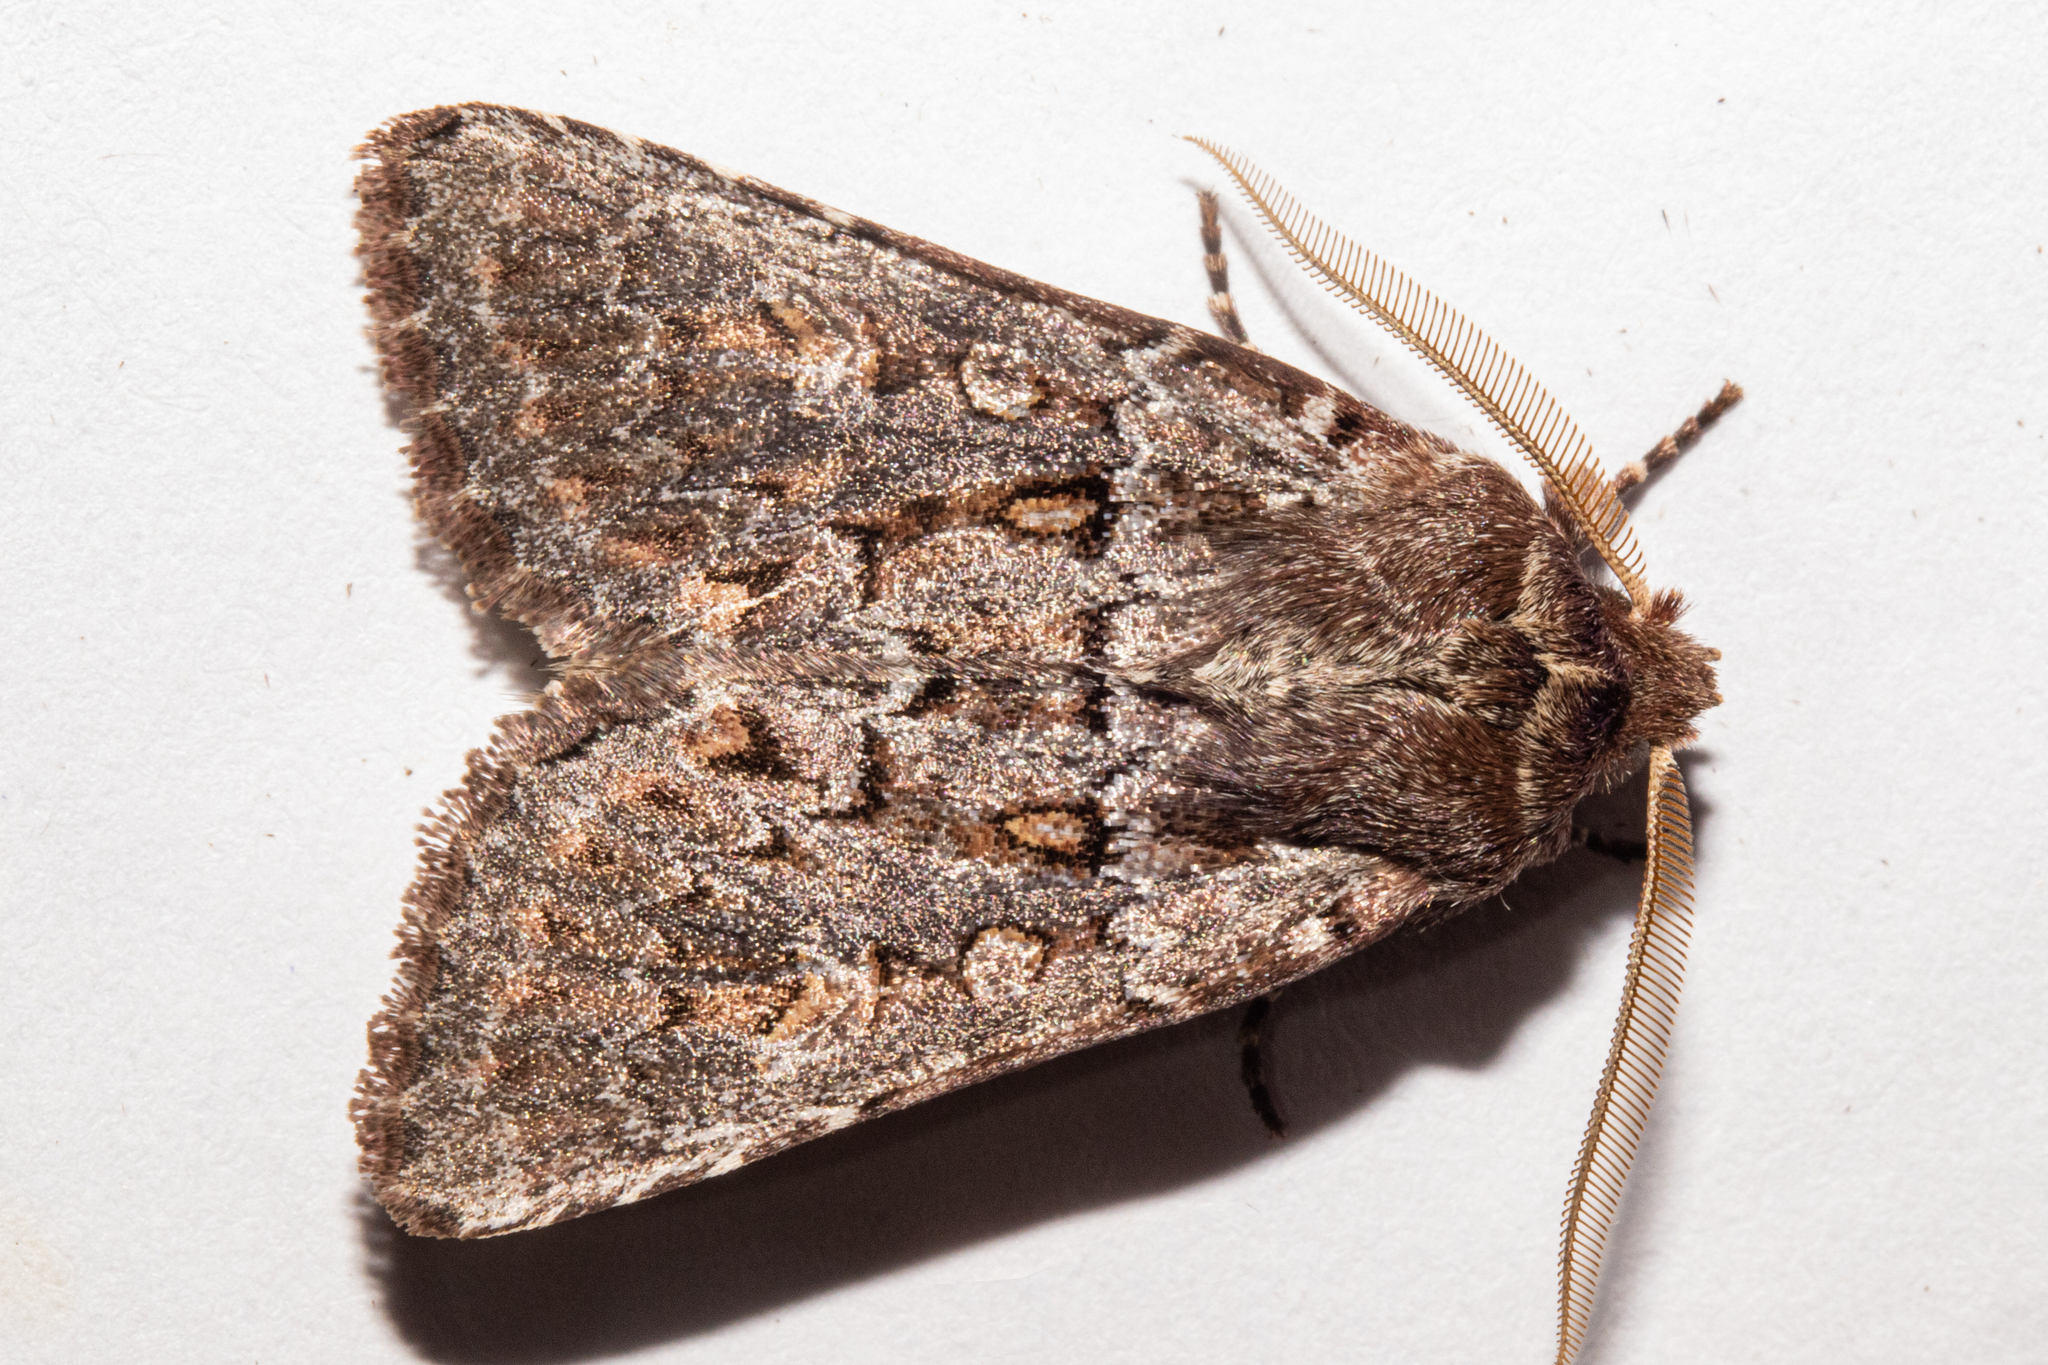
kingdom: Animalia
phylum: Arthropoda
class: Insecta
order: Lepidoptera
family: Noctuidae
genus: Ichneutica
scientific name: Ichneutica marmorata
